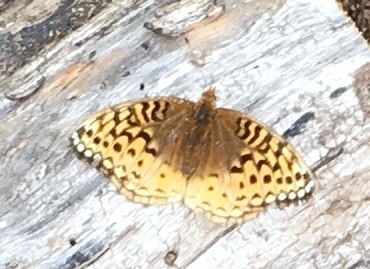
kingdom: Animalia
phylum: Arthropoda
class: Insecta
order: Lepidoptera
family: Nymphalidae
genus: Speyeria
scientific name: Speyeria cybele
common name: Great spangled fritillary
